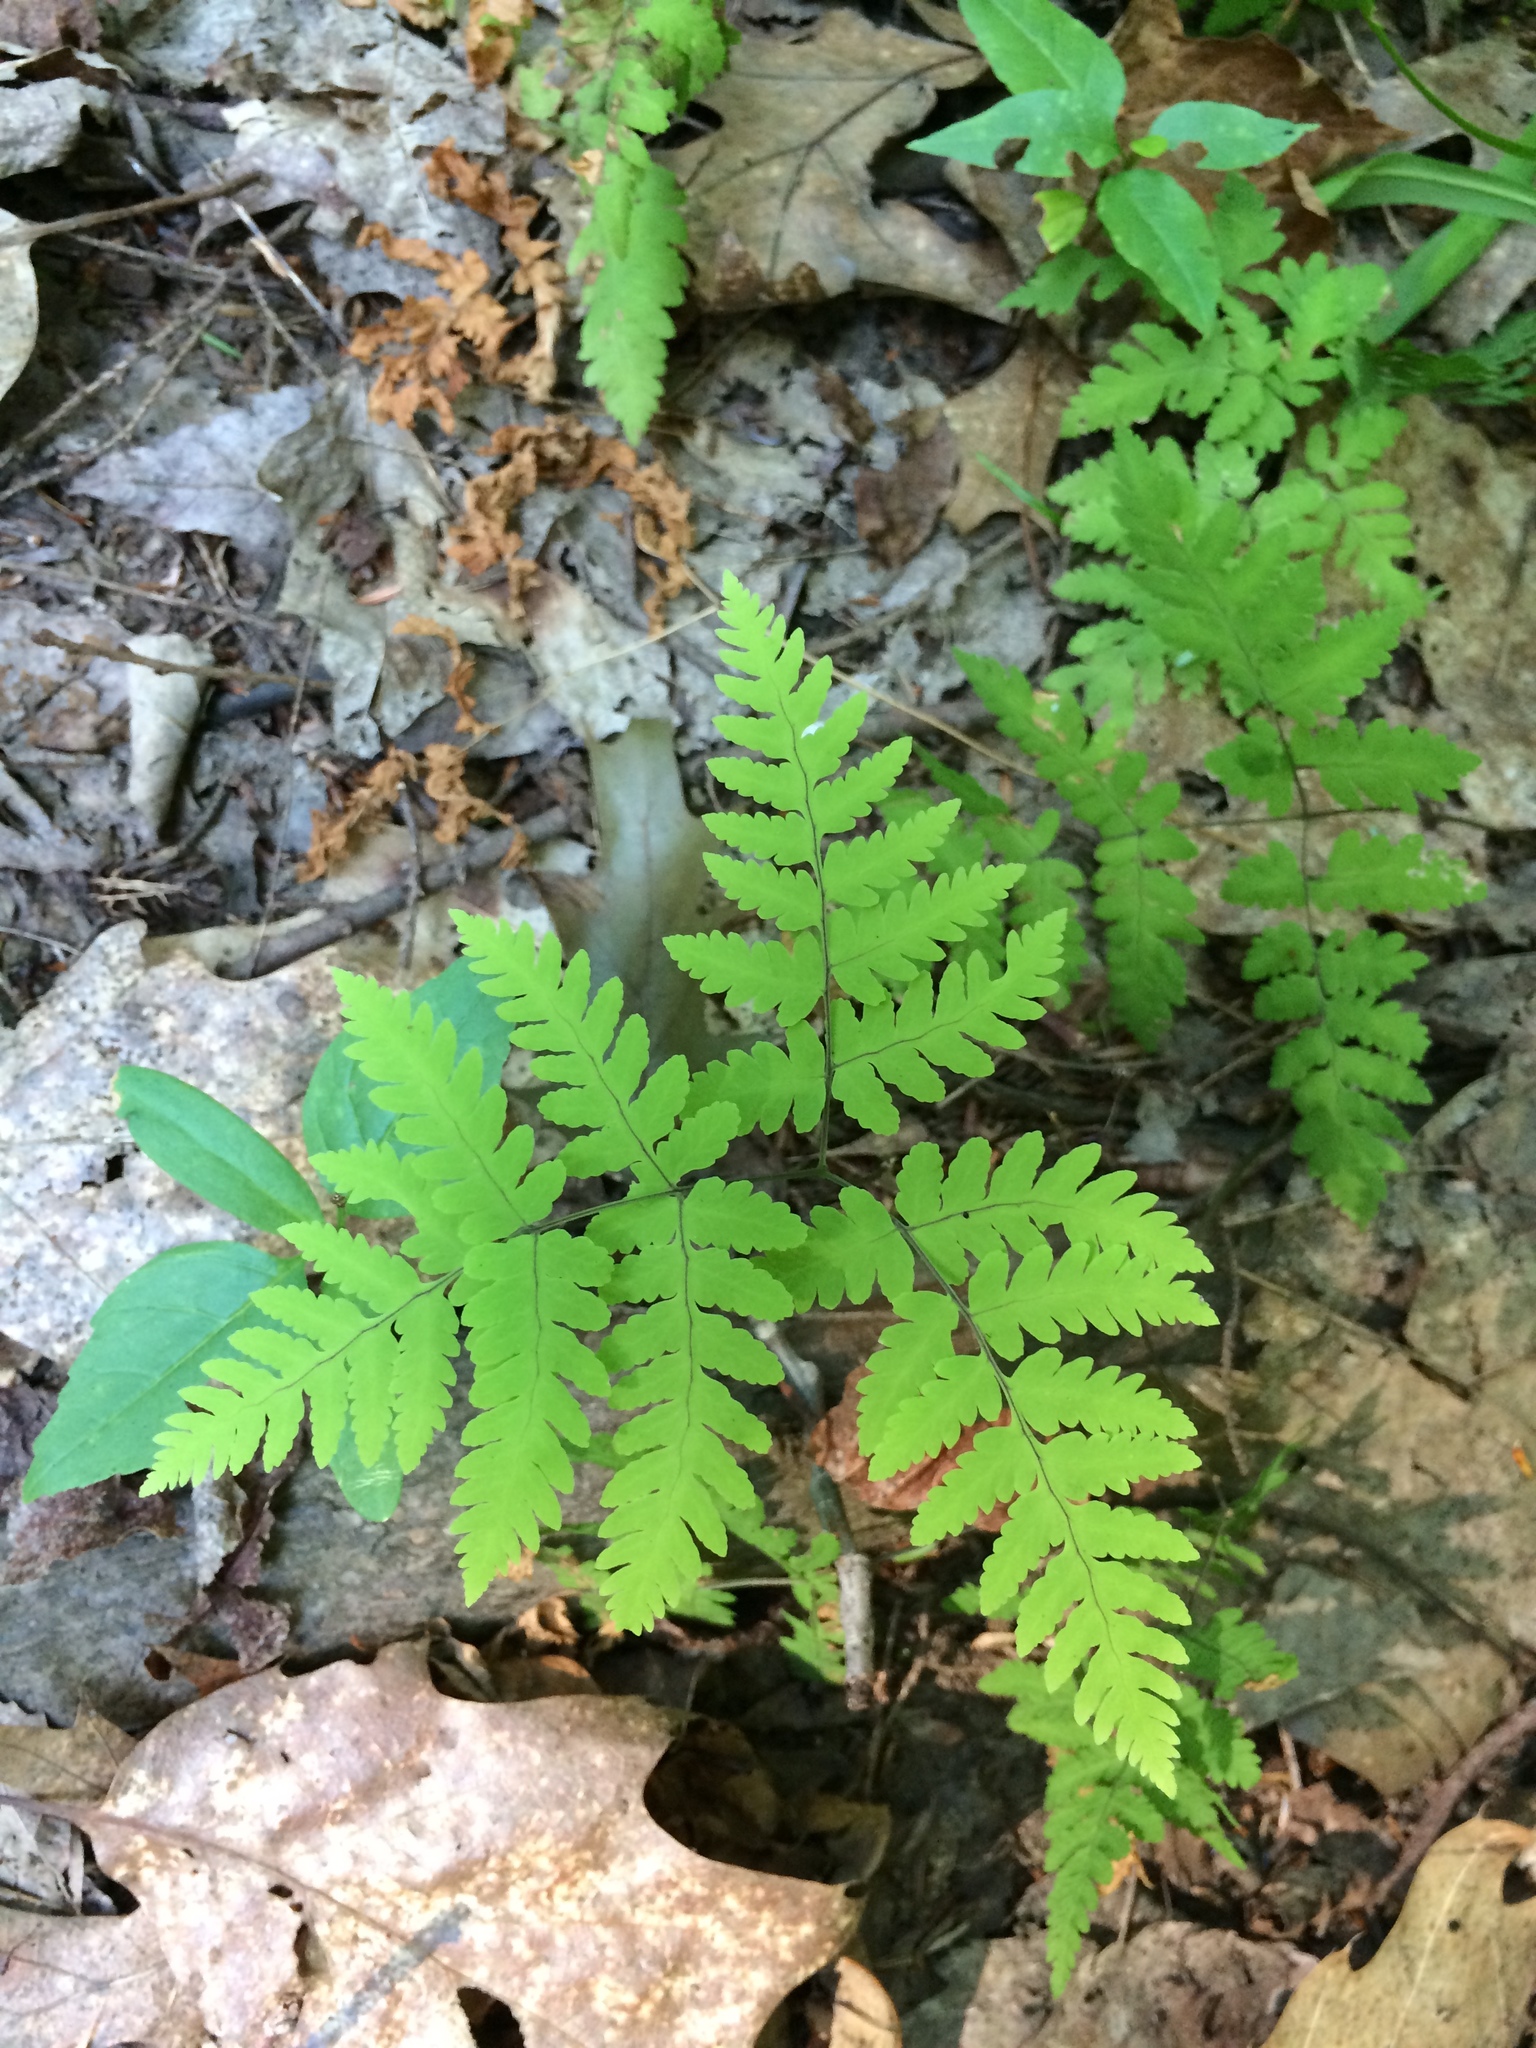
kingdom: Plantae
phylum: Tracheophyta
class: Polypodiopsida
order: Polypodiales
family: Cystopteridaceae
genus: Gymnocarpium
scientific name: Gymnocarpium dryopteris
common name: Oak fern
